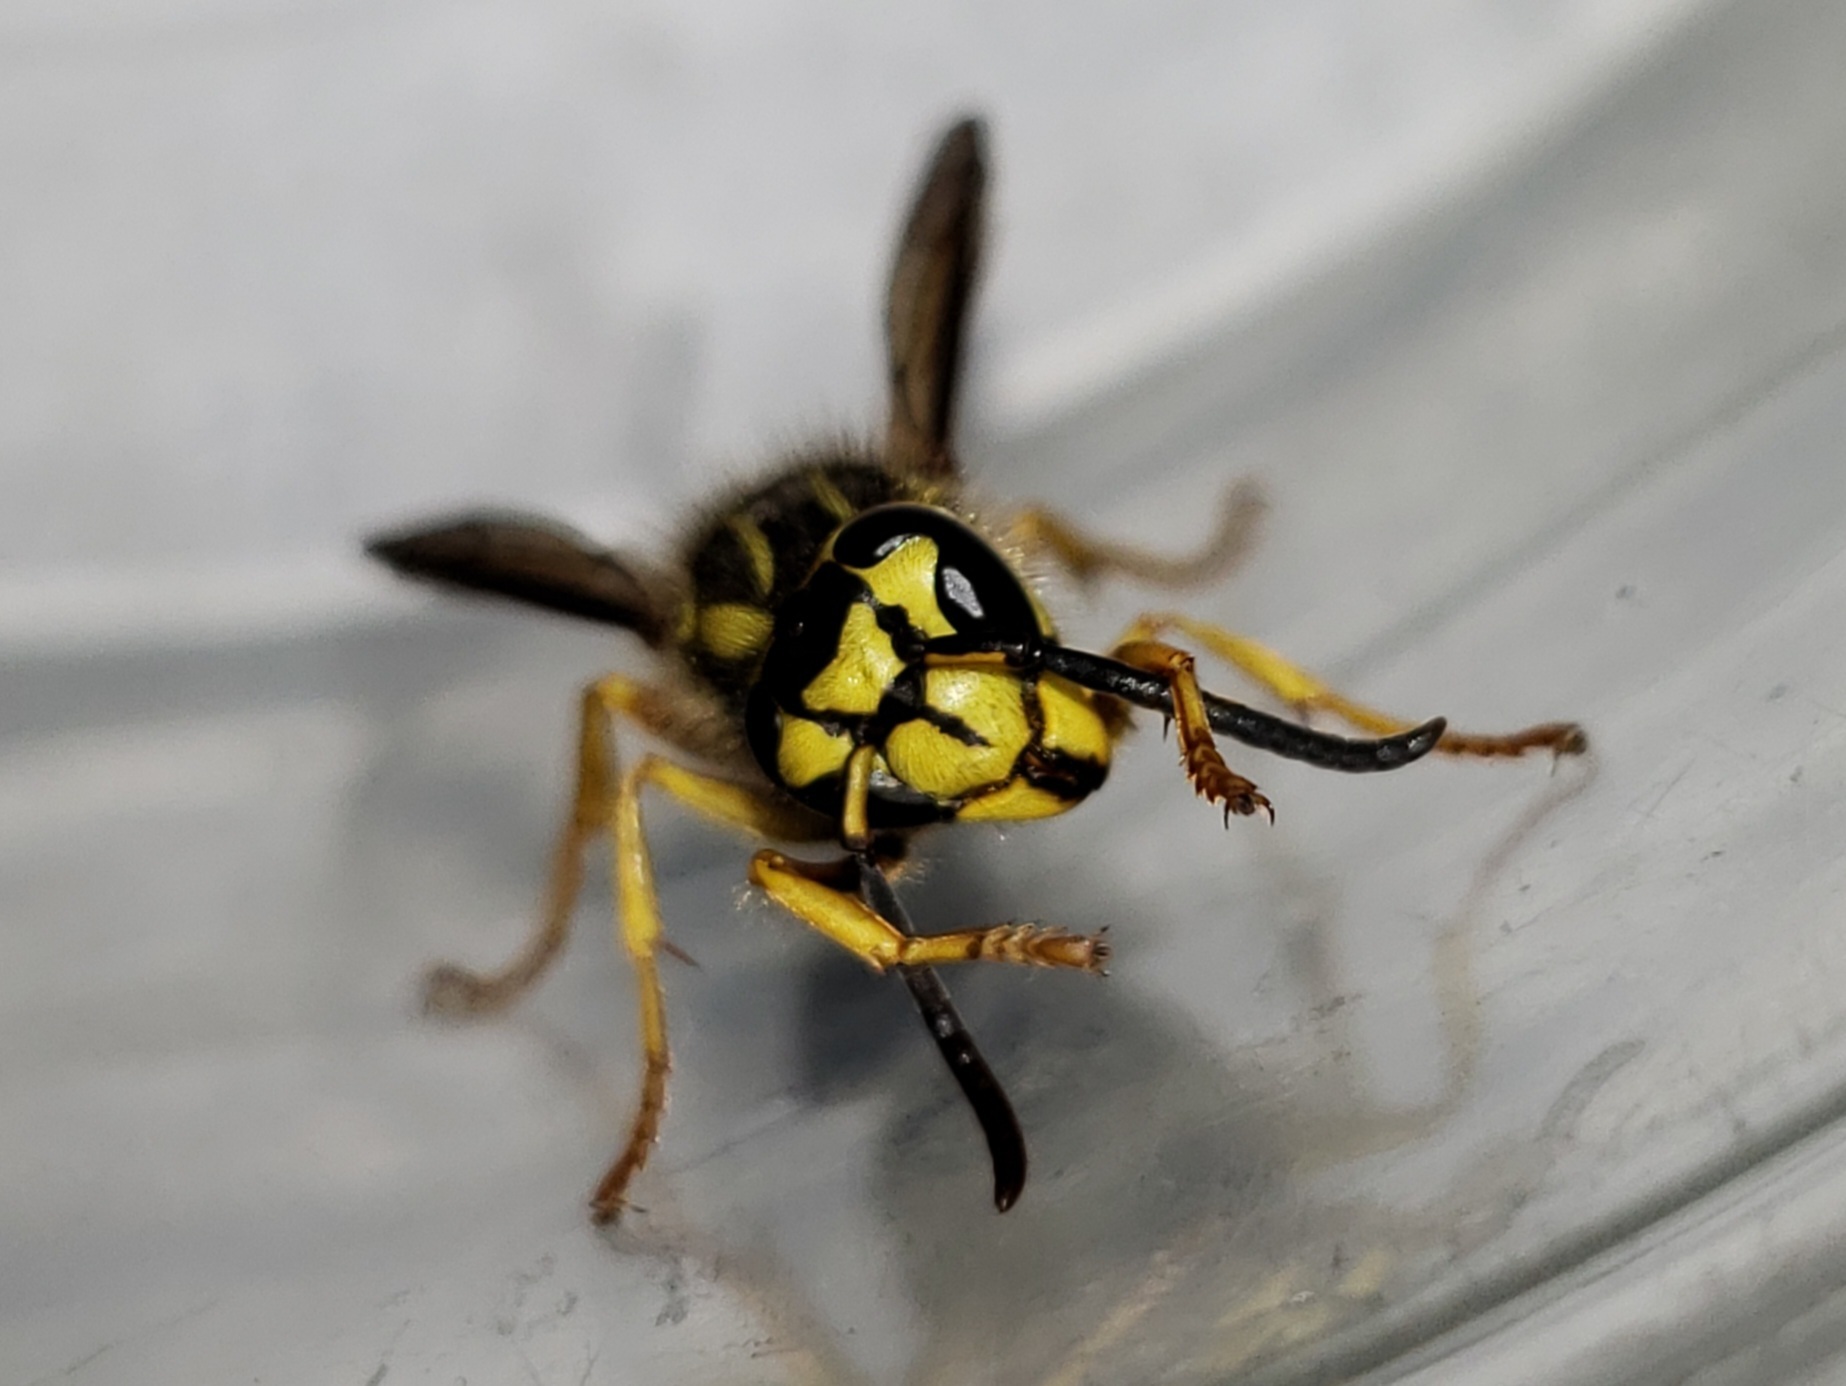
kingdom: Animalia
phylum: Arthropoda
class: Insecta
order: Hymenoptera
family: Vespidae
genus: Vespula
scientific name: Vespula squamosa
